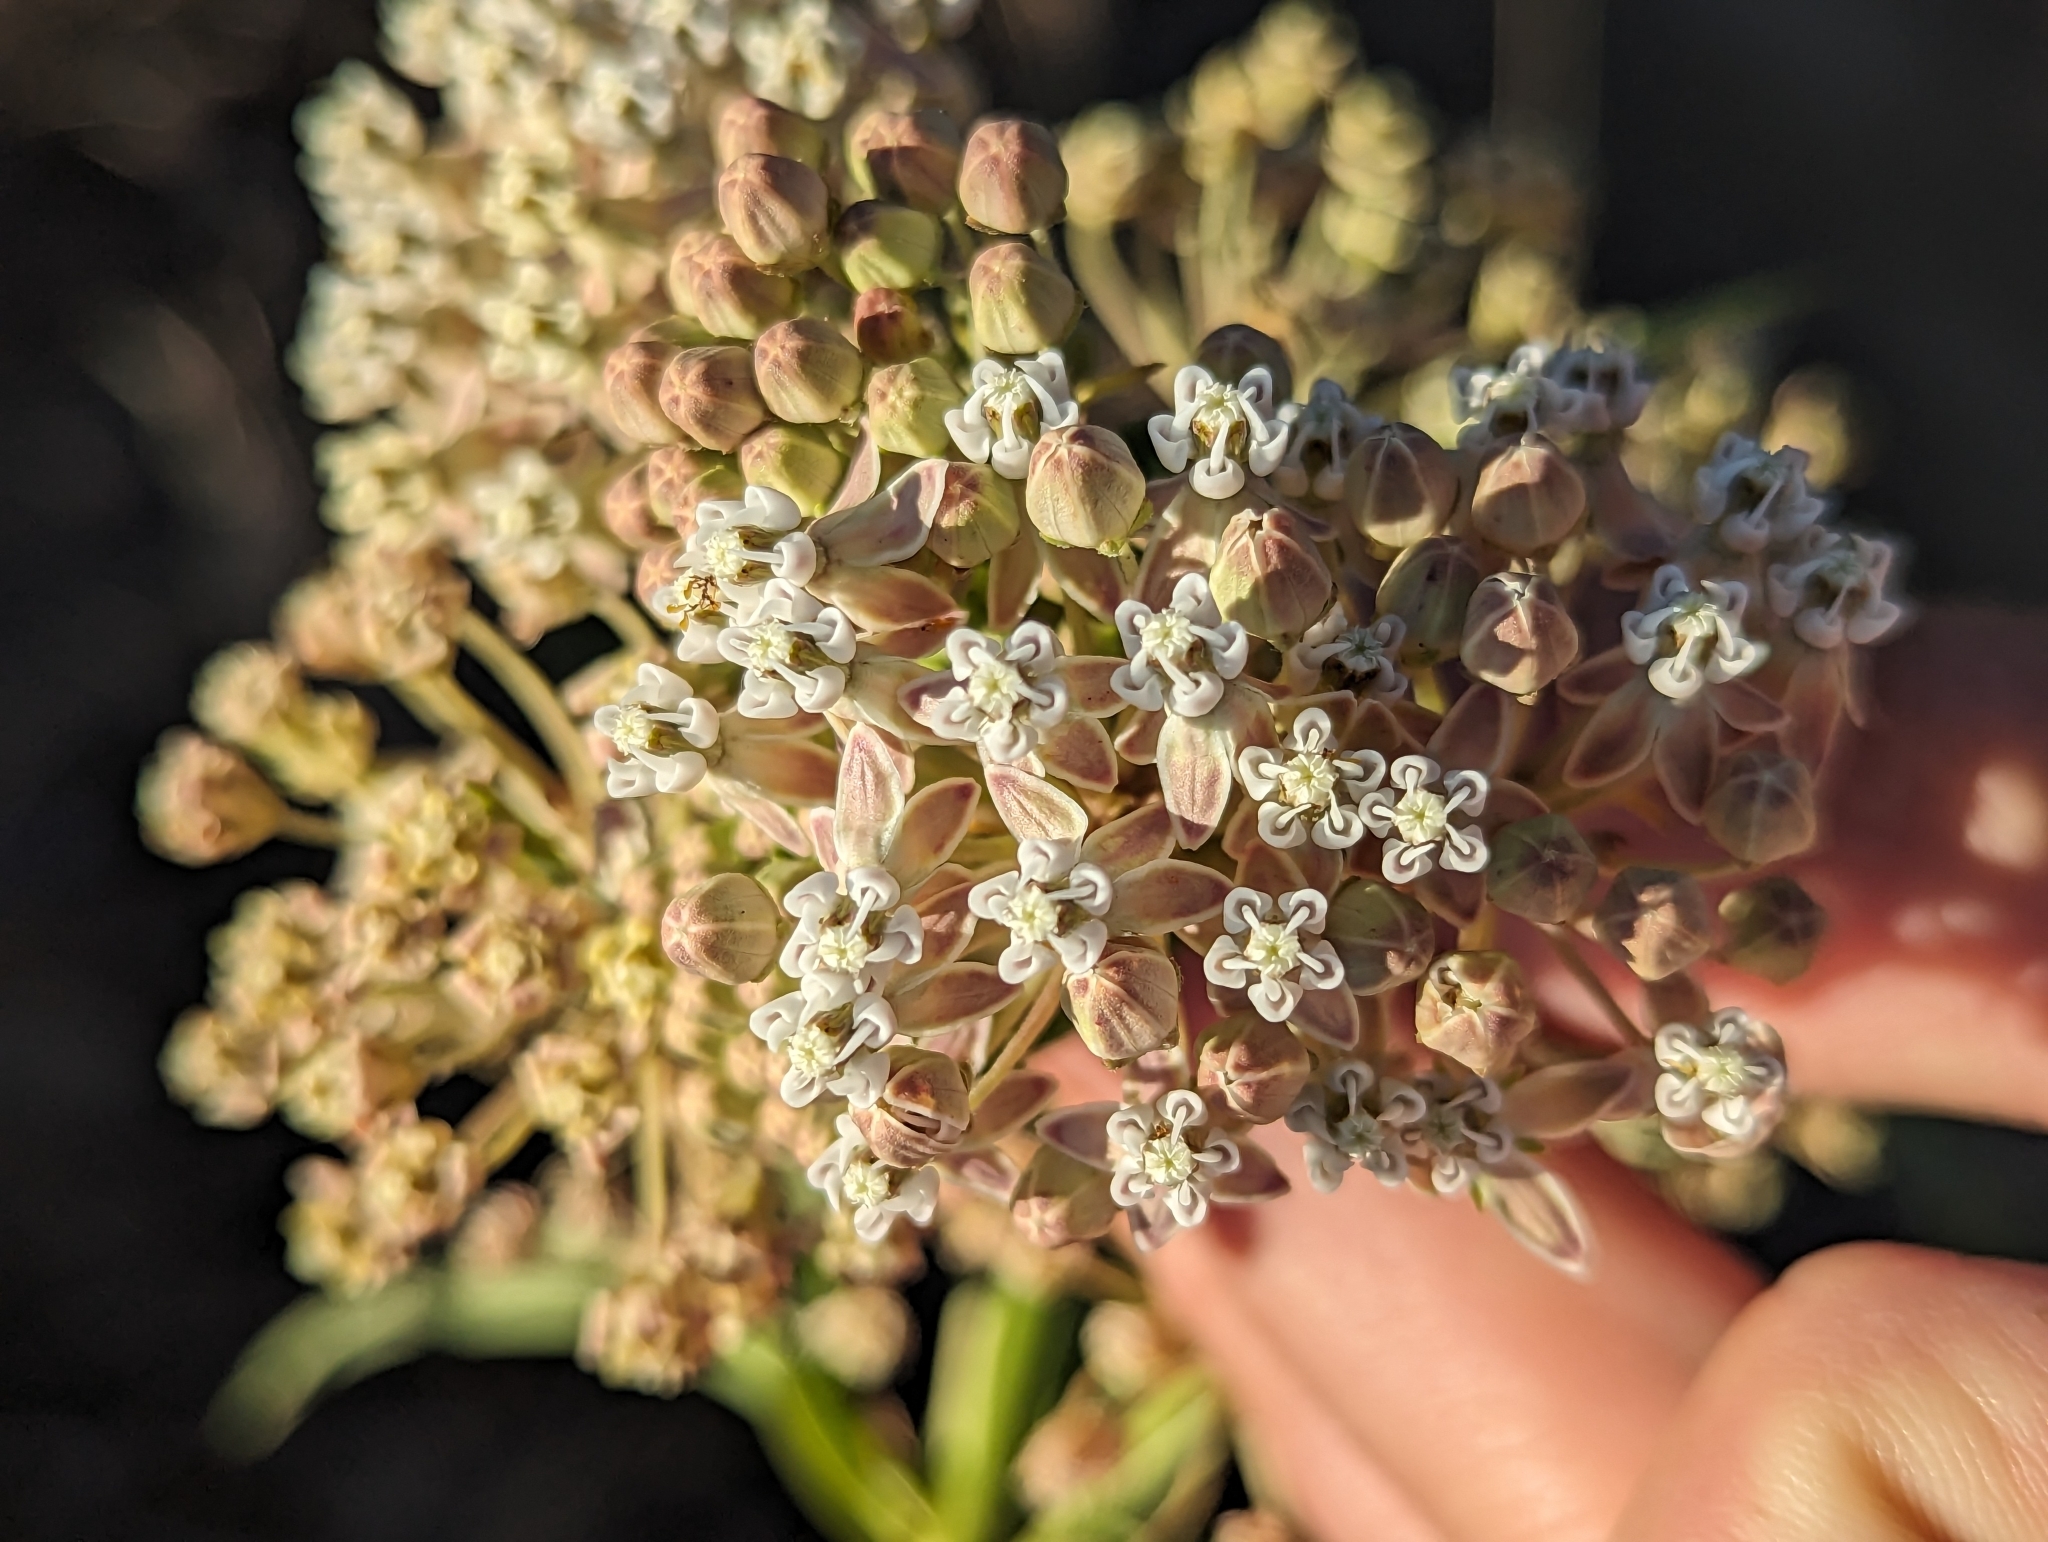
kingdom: Plantae
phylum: Tracheophyta
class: Magnoliopsida
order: Gentianales
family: Apocynaceae
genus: Asclepias
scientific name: Asclepias fascicularis
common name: Mexican milkweed
